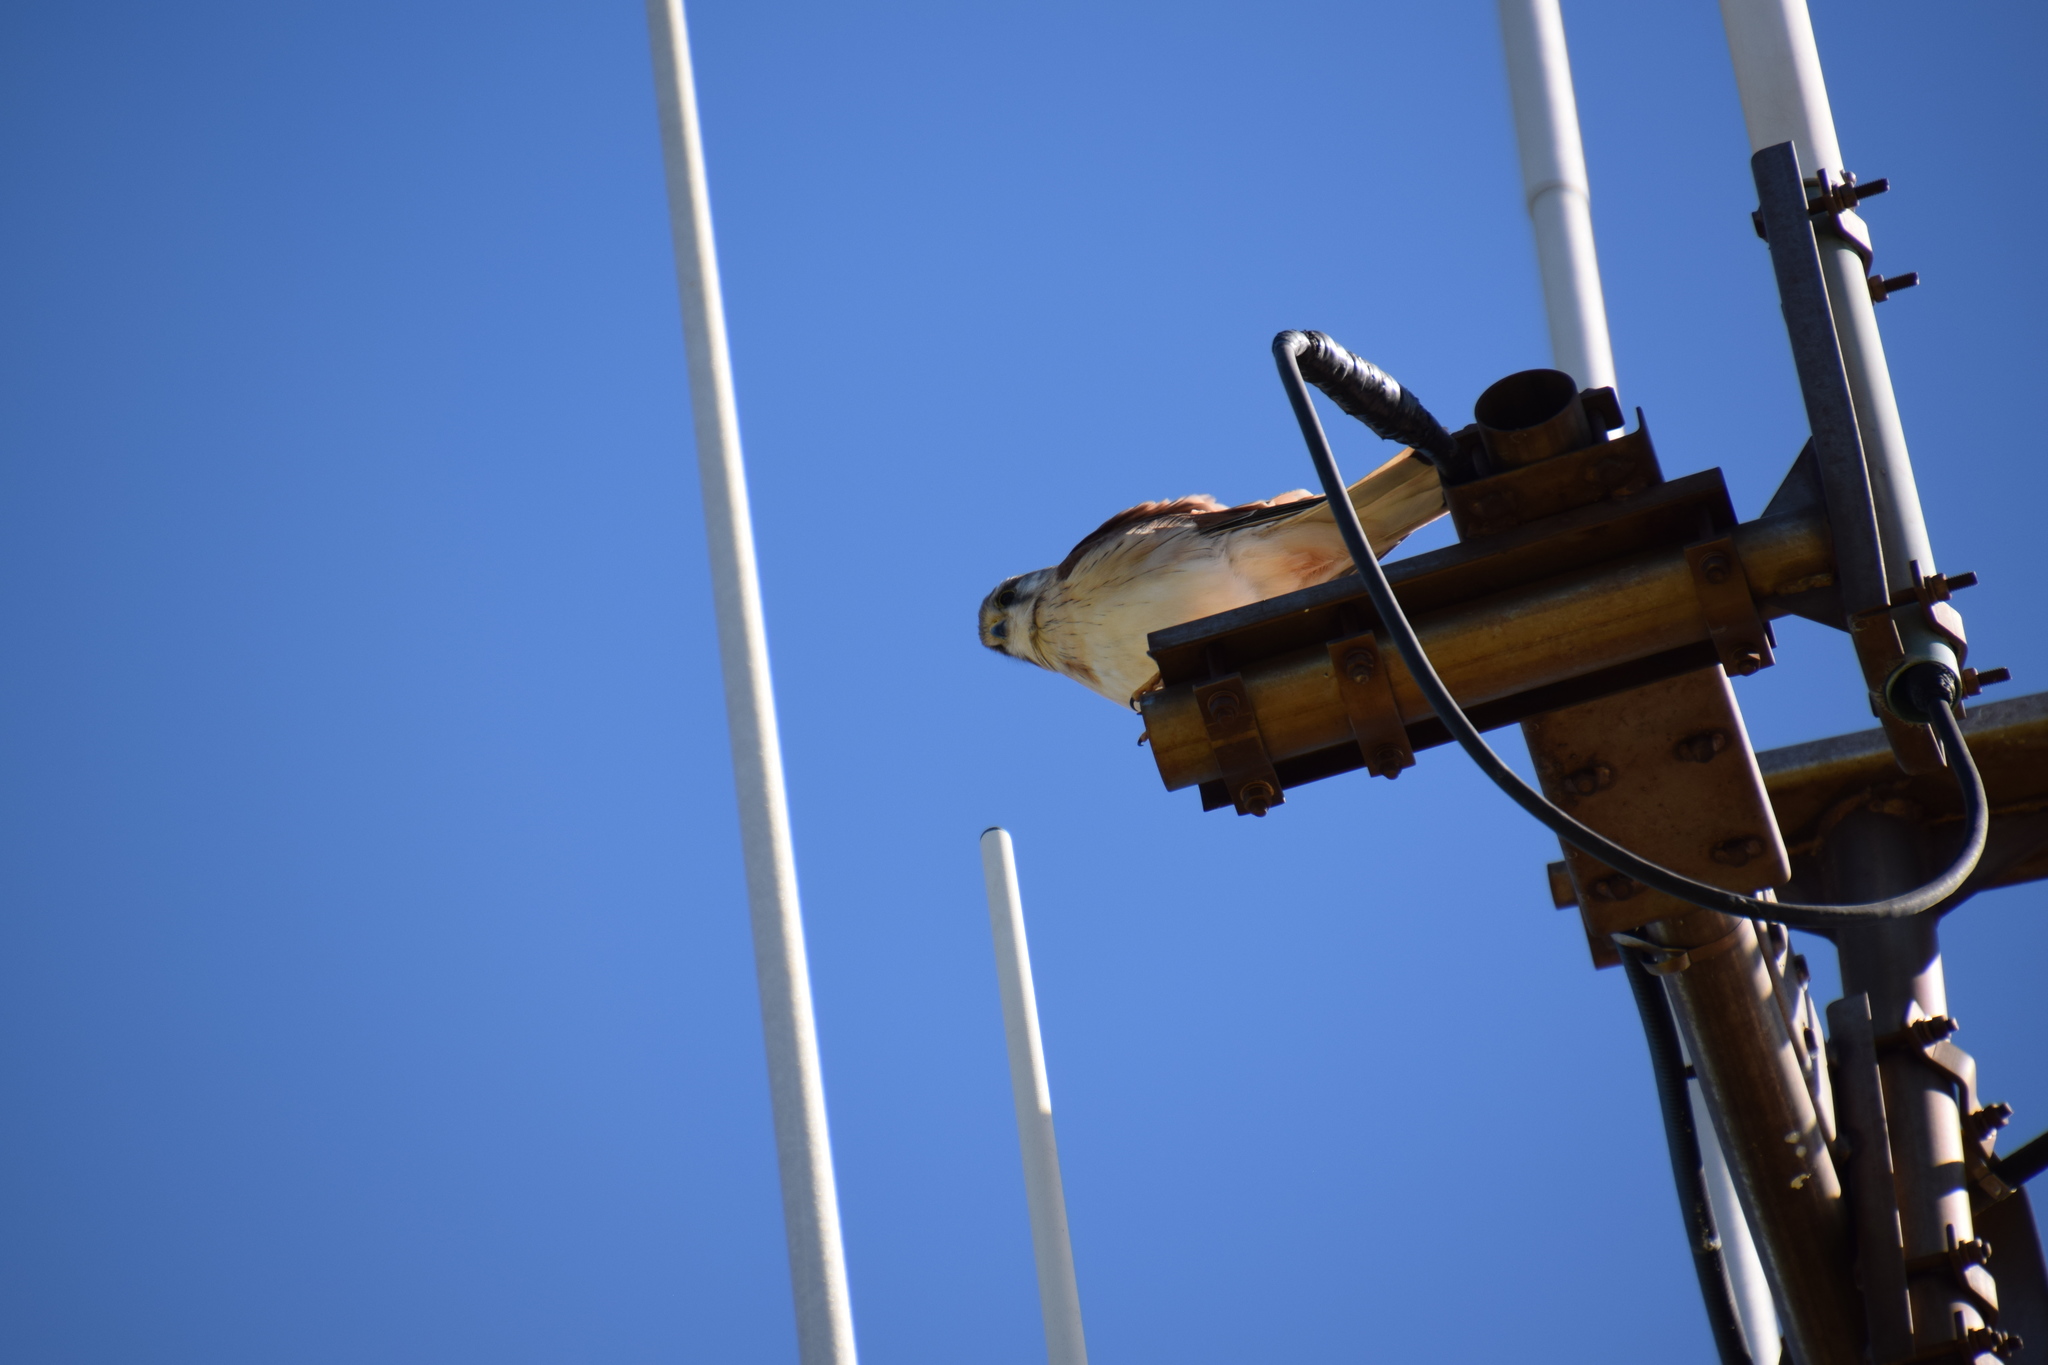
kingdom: Animalia
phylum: Chordata
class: Aves
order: Falconiformes
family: Falconidae
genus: Falco
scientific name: Falco cenchroides
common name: Nankeen kestrel
